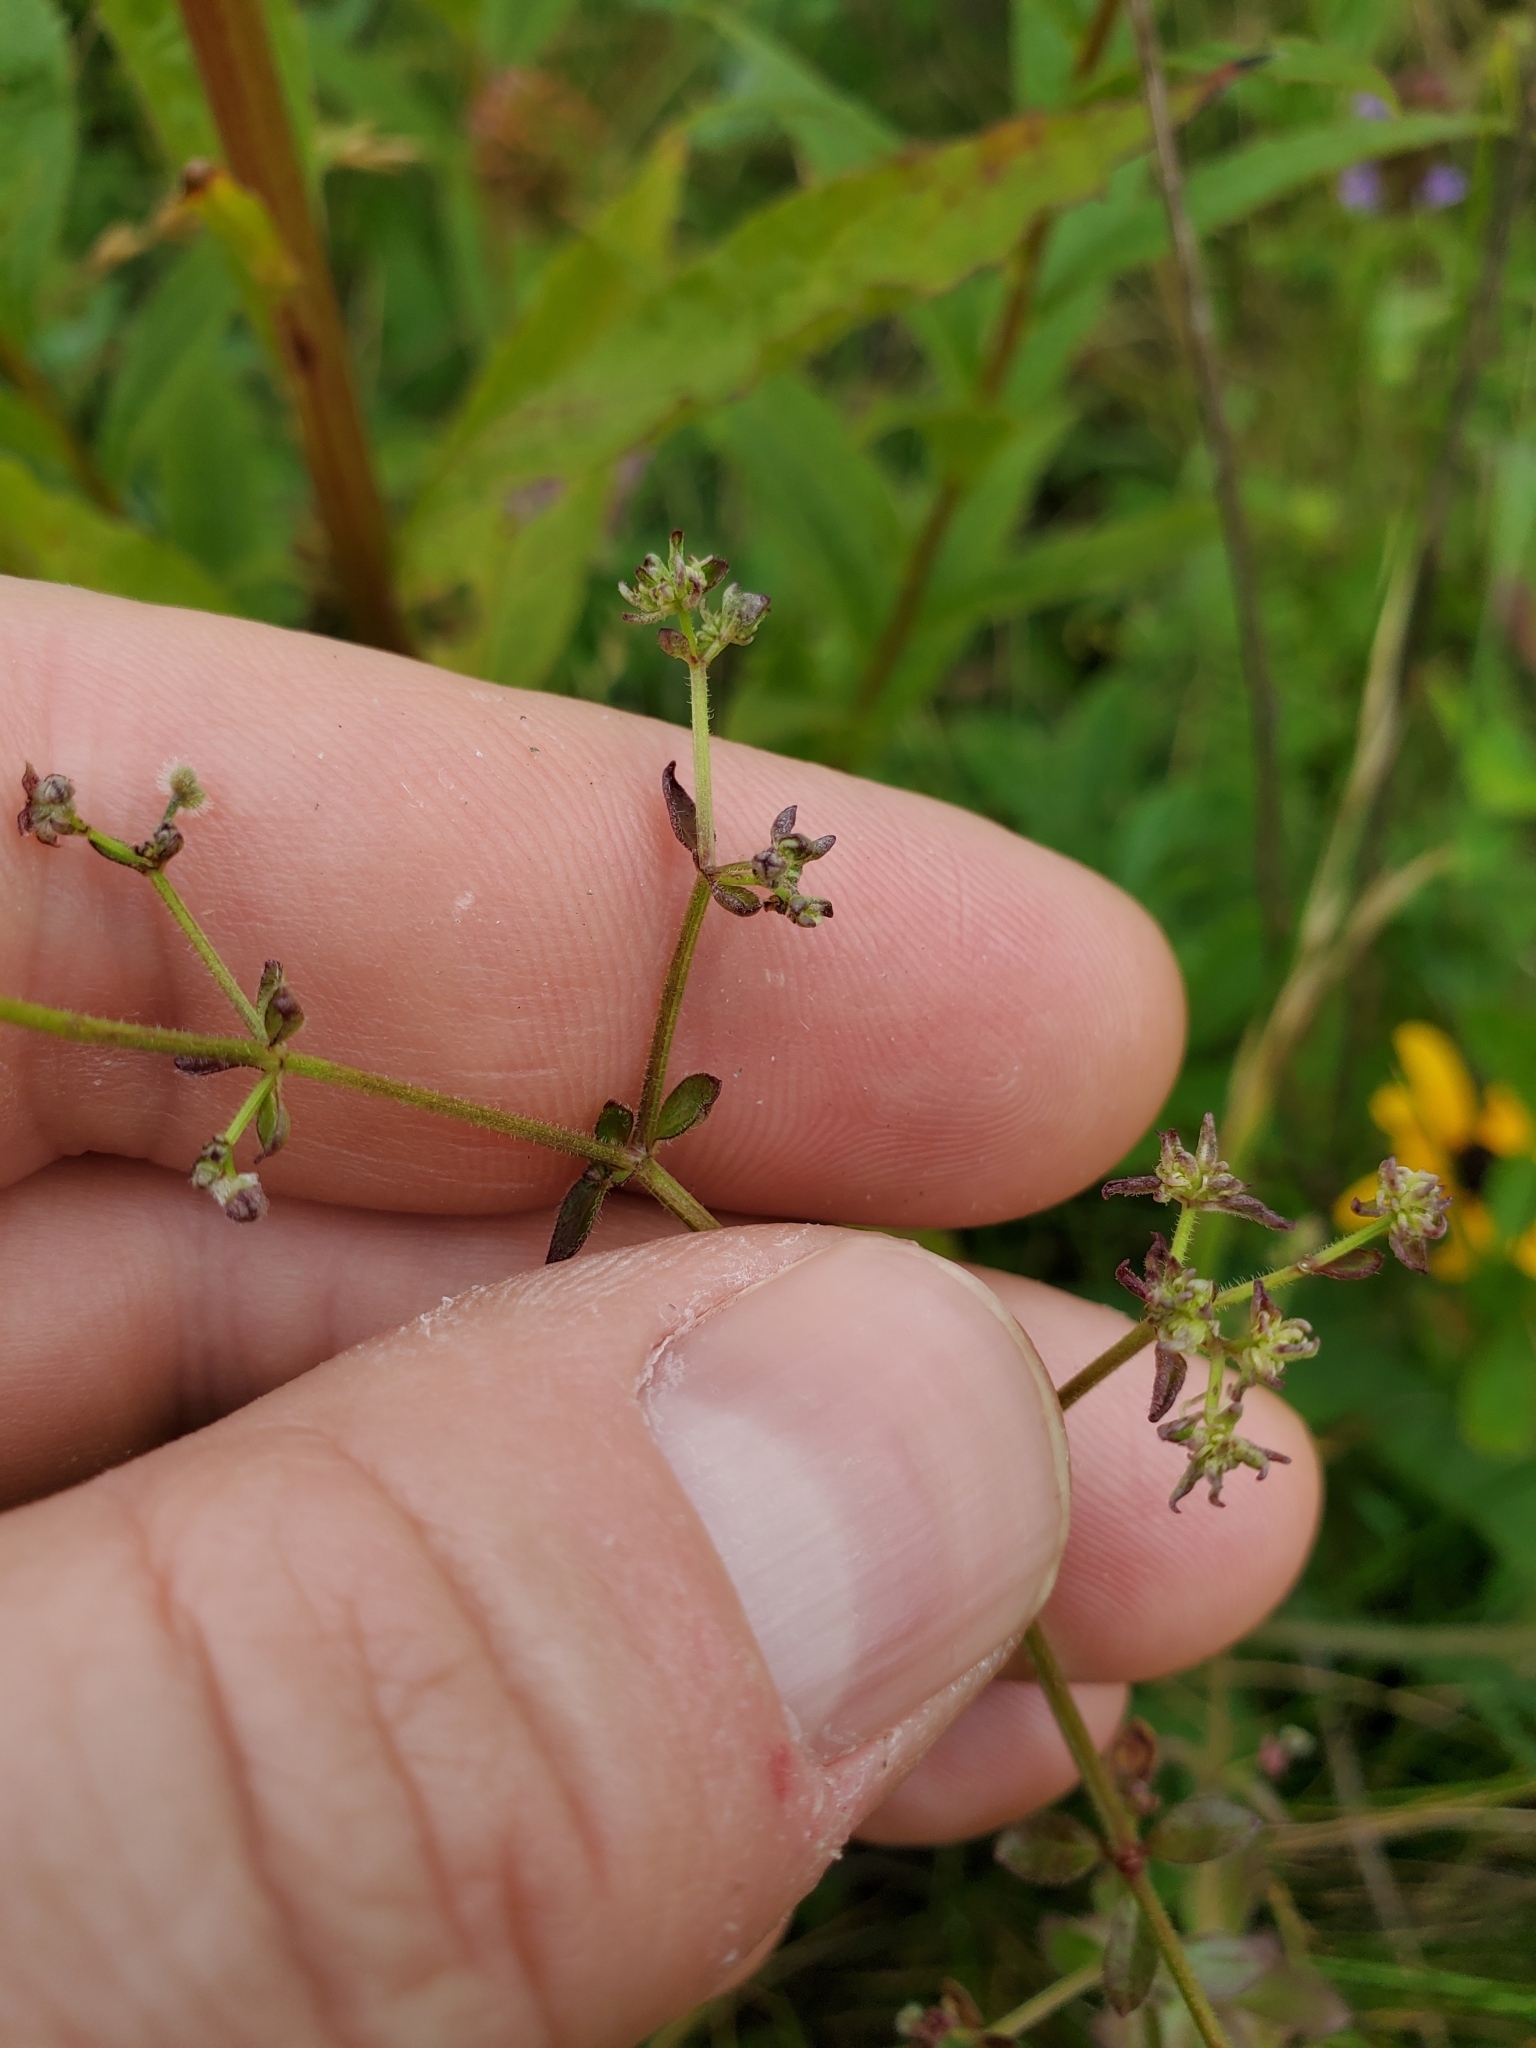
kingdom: Plantae
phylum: Tracheophyta
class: Magnoliopsida
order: Gentianales
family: Rubiaceae
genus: Galium
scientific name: Galium pilosum
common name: Hairy bedstraw
